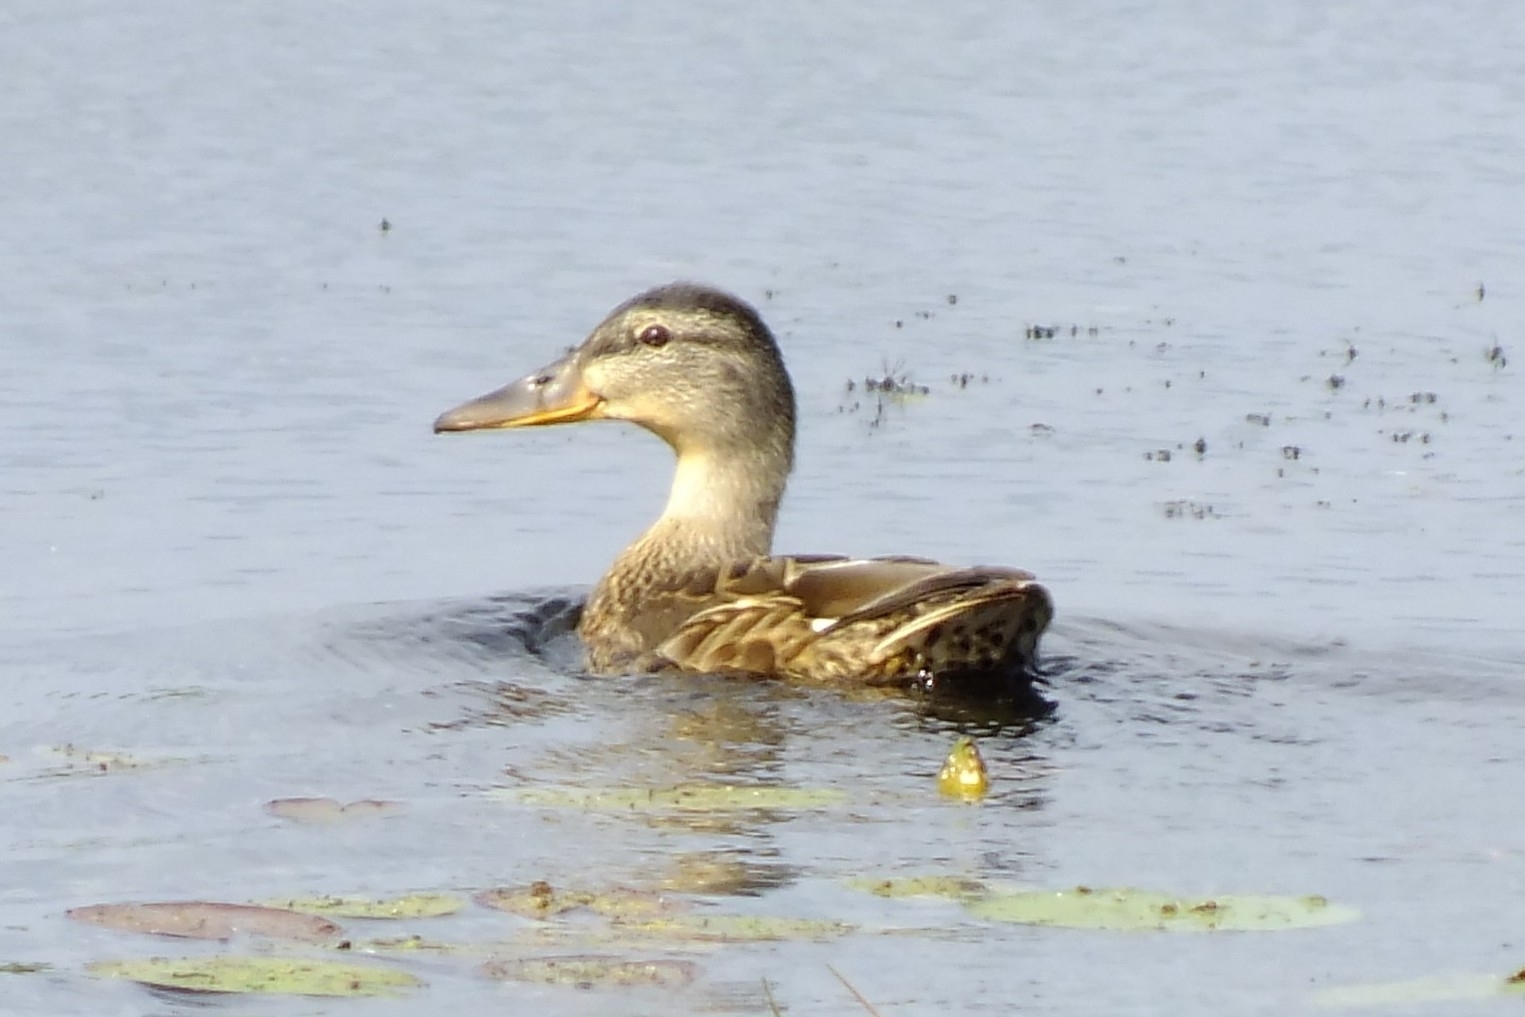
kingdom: Animalia
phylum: Chordata
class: Aves
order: Anseriformes
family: Anatidae
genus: Anas
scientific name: Anas platyrhynchos
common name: Mallard
